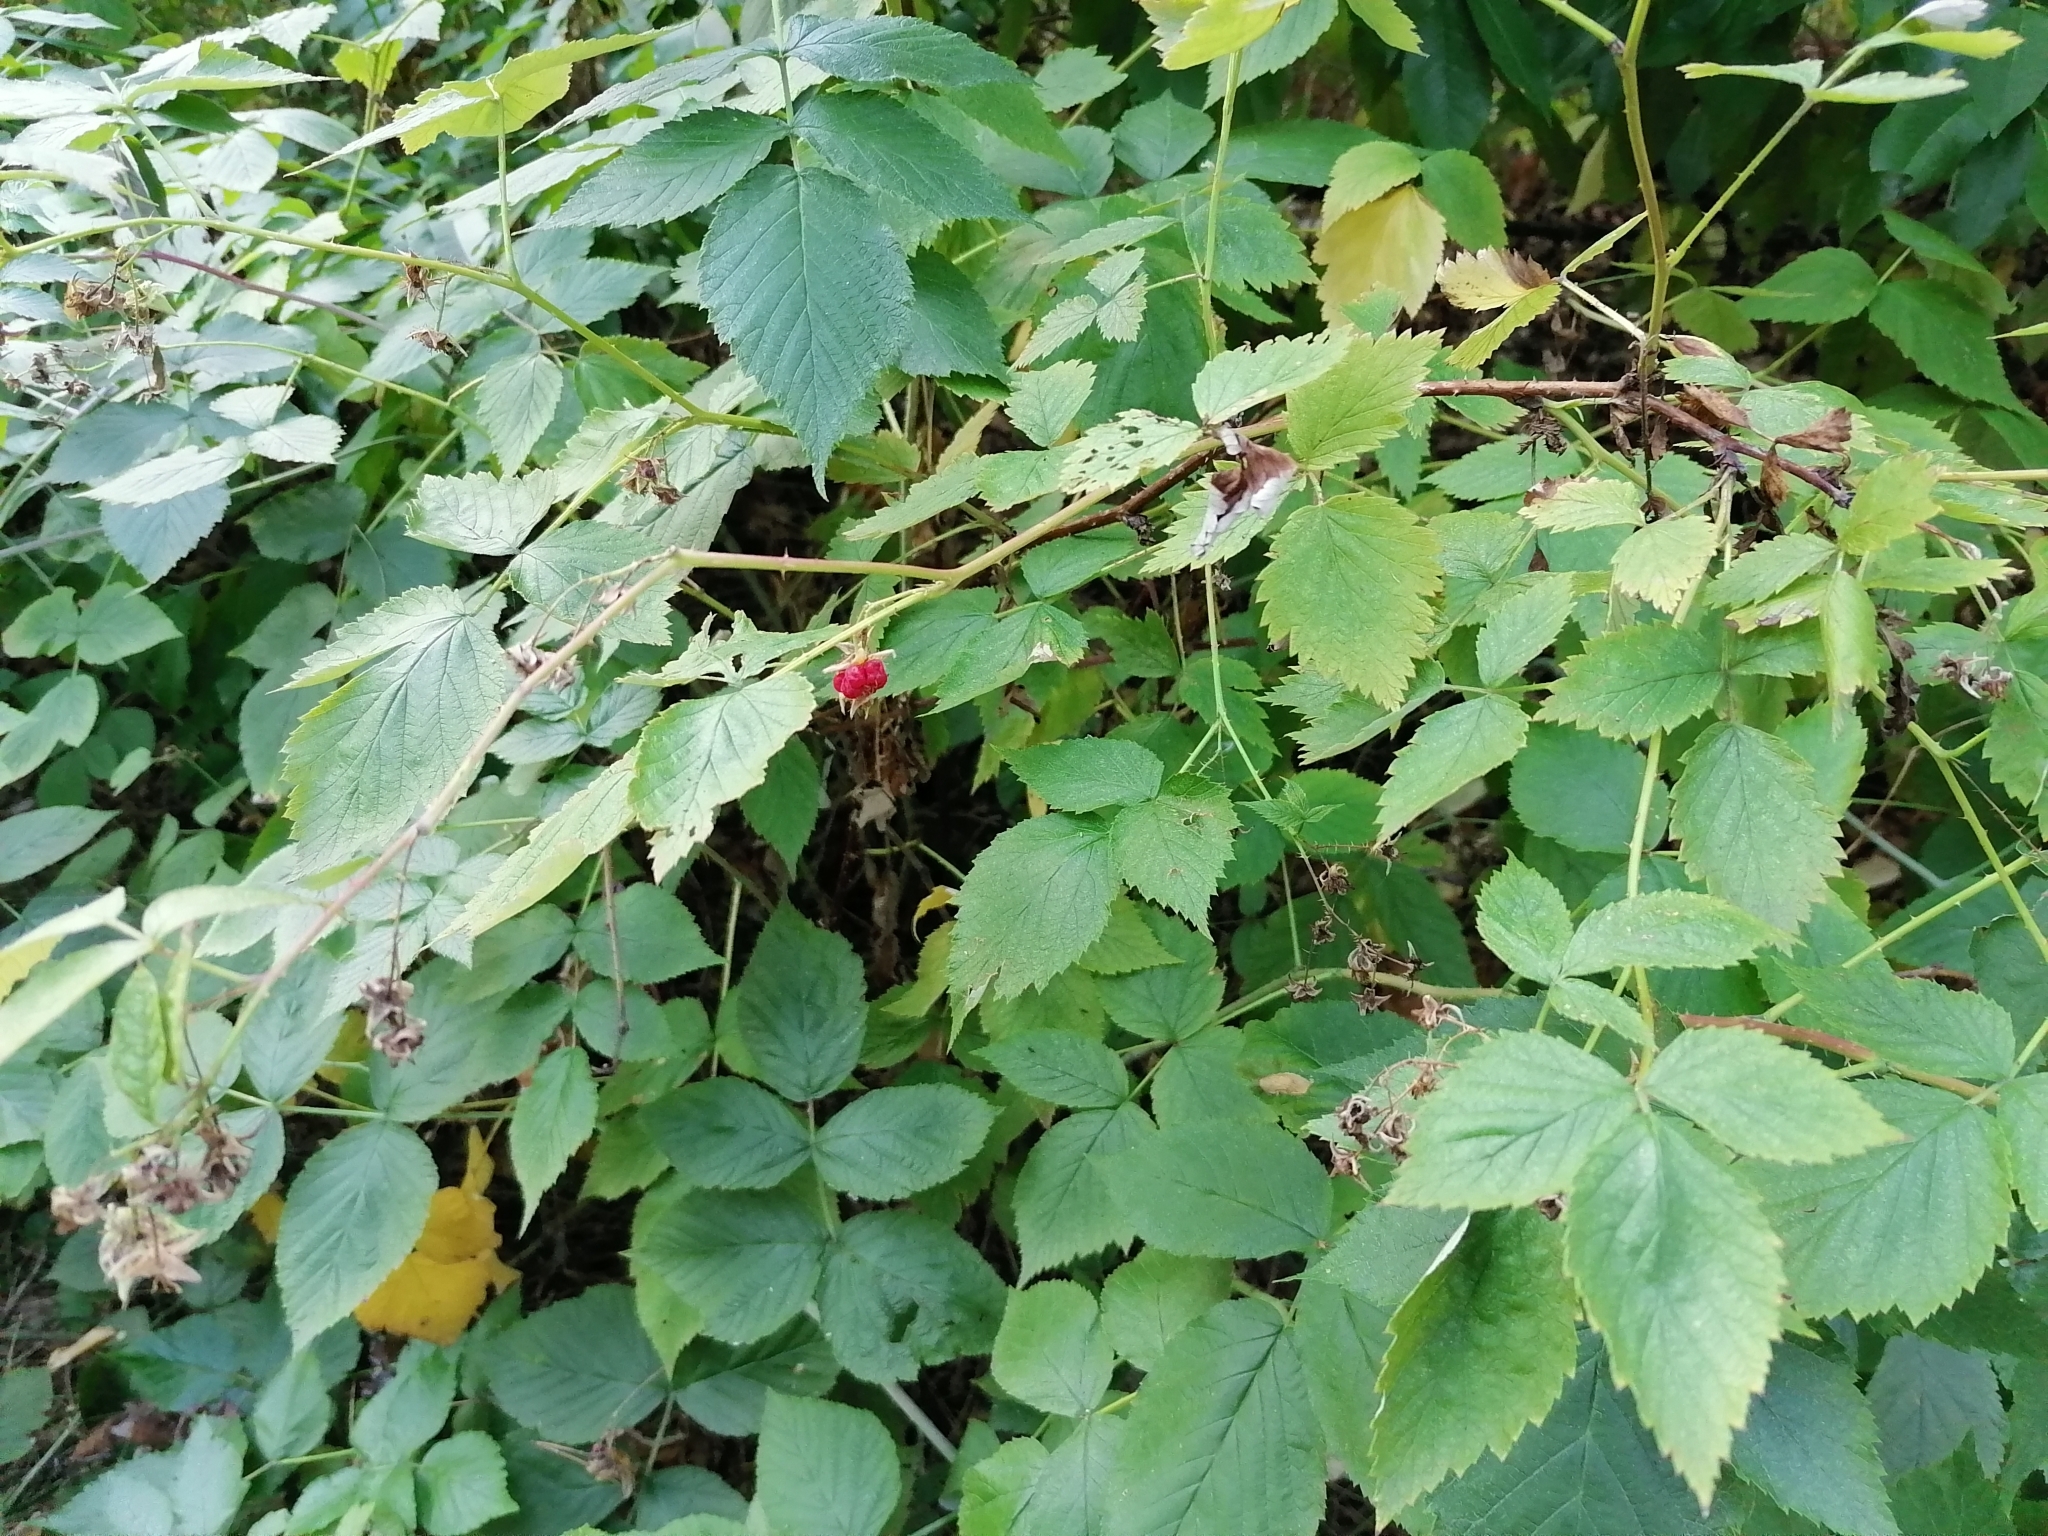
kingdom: Plantae
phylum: Tracheophyta
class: Magnoliopsida
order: Rosales
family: Rosaceae
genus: Rubus
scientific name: Rubus idaeus
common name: Raspberry
